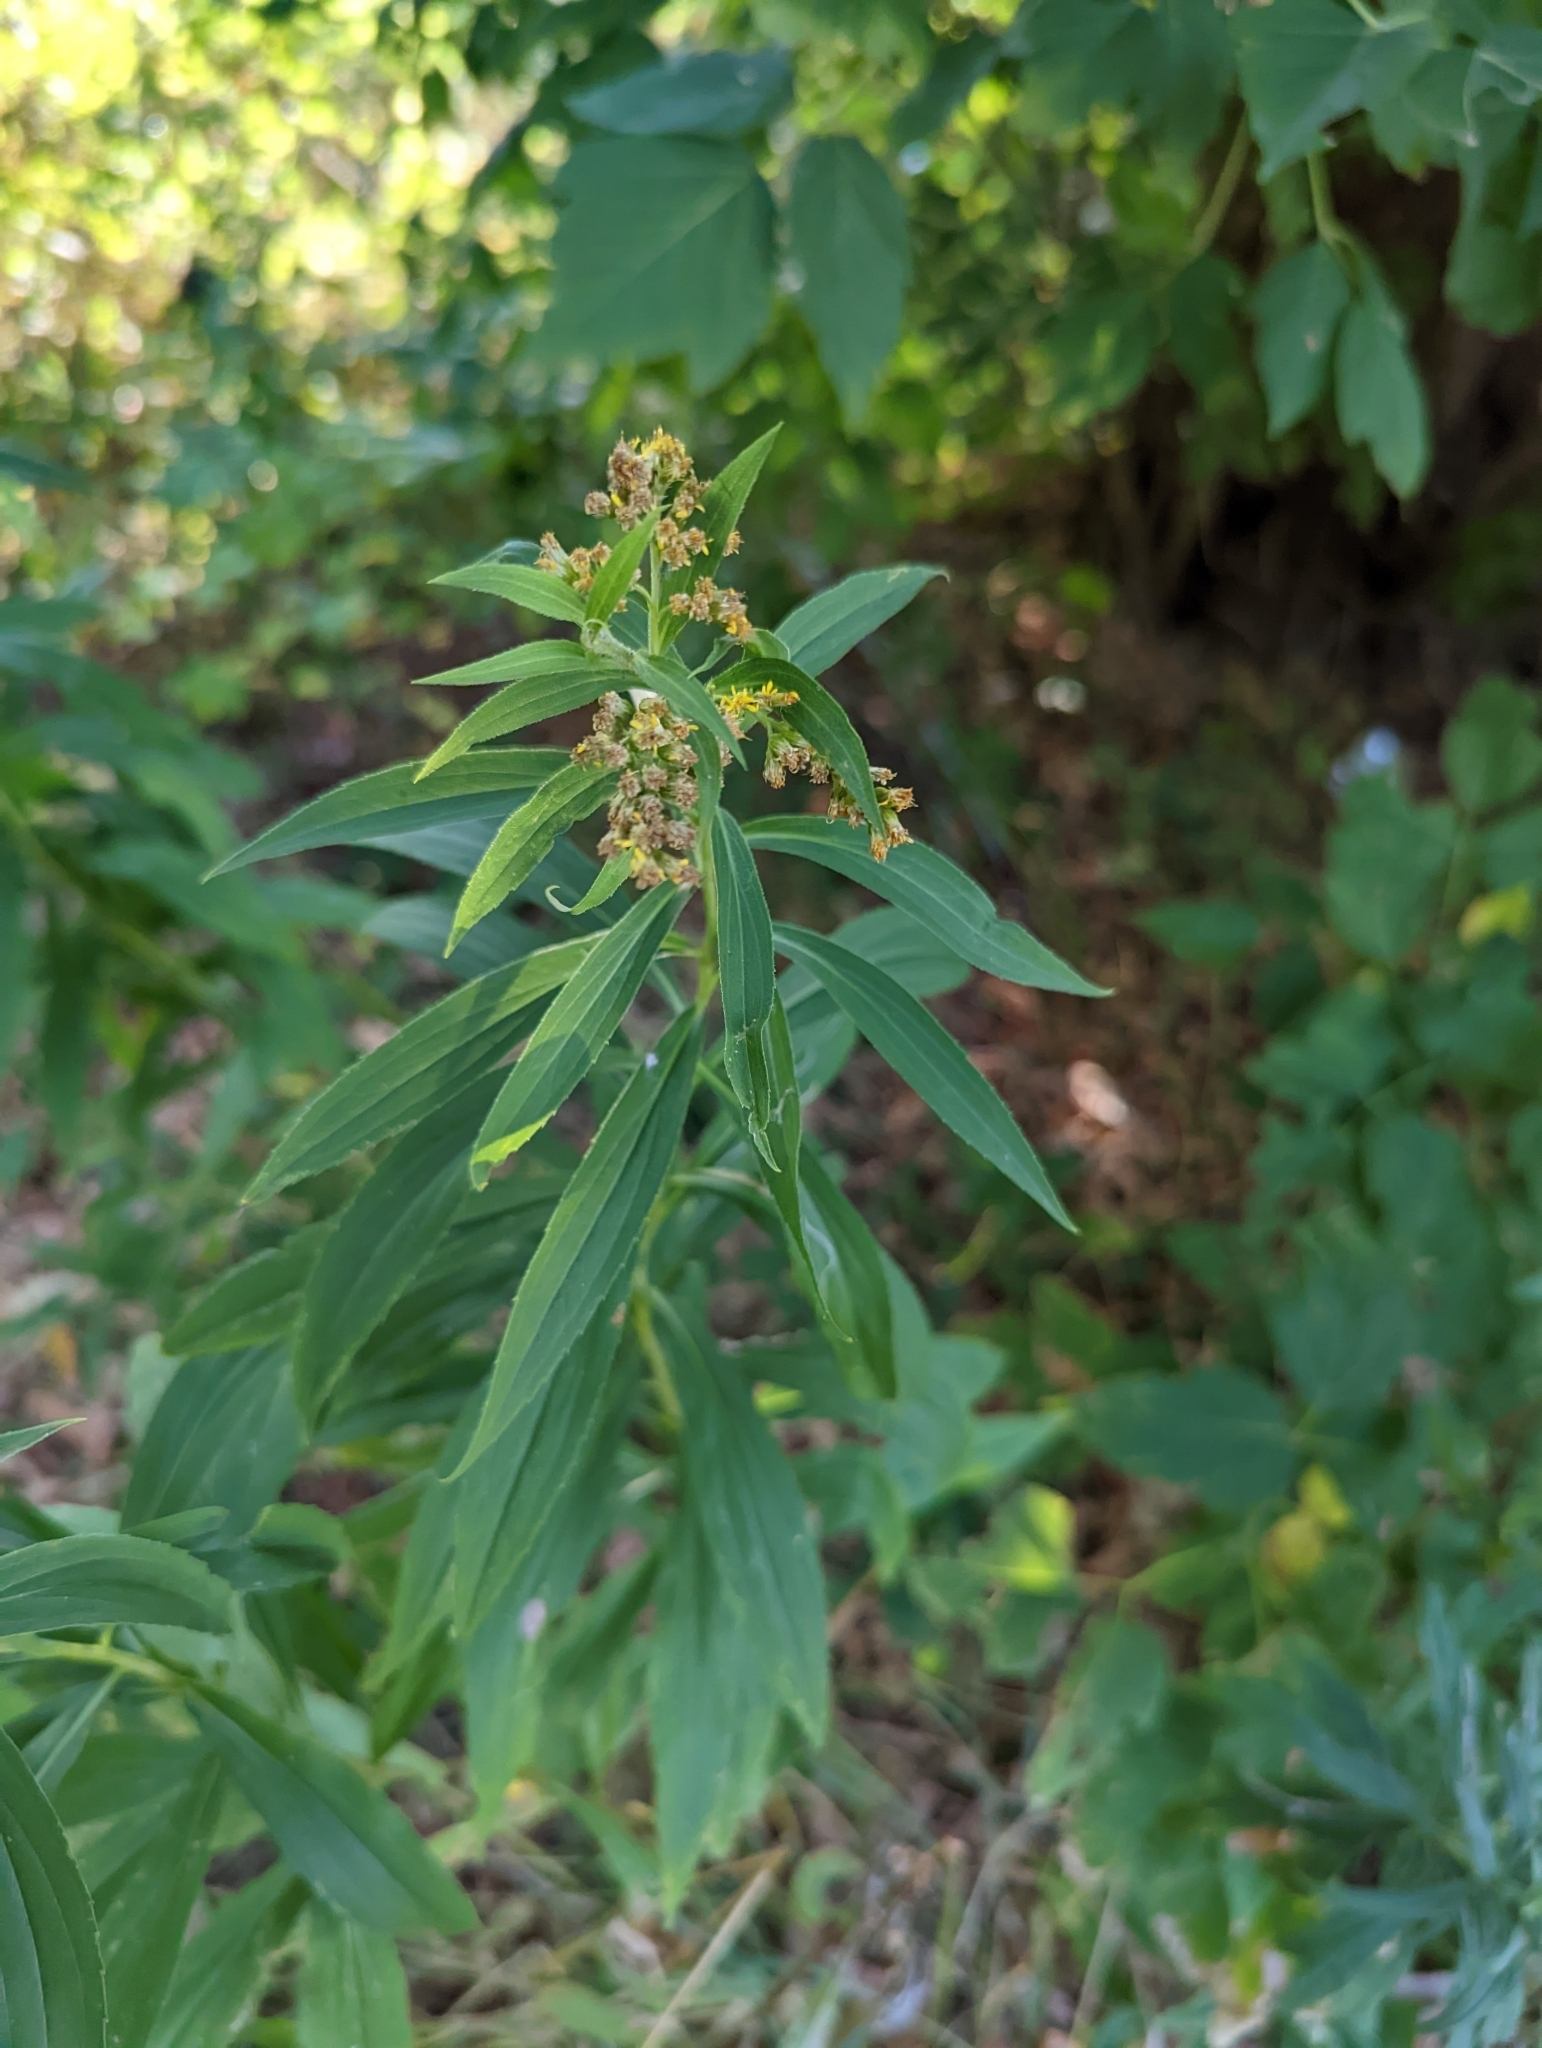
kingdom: Animalia
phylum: Arthropoda
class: Insecta
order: Diptera
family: Agromyzidae
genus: Ophiomyia
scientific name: Ophiomyia maura
